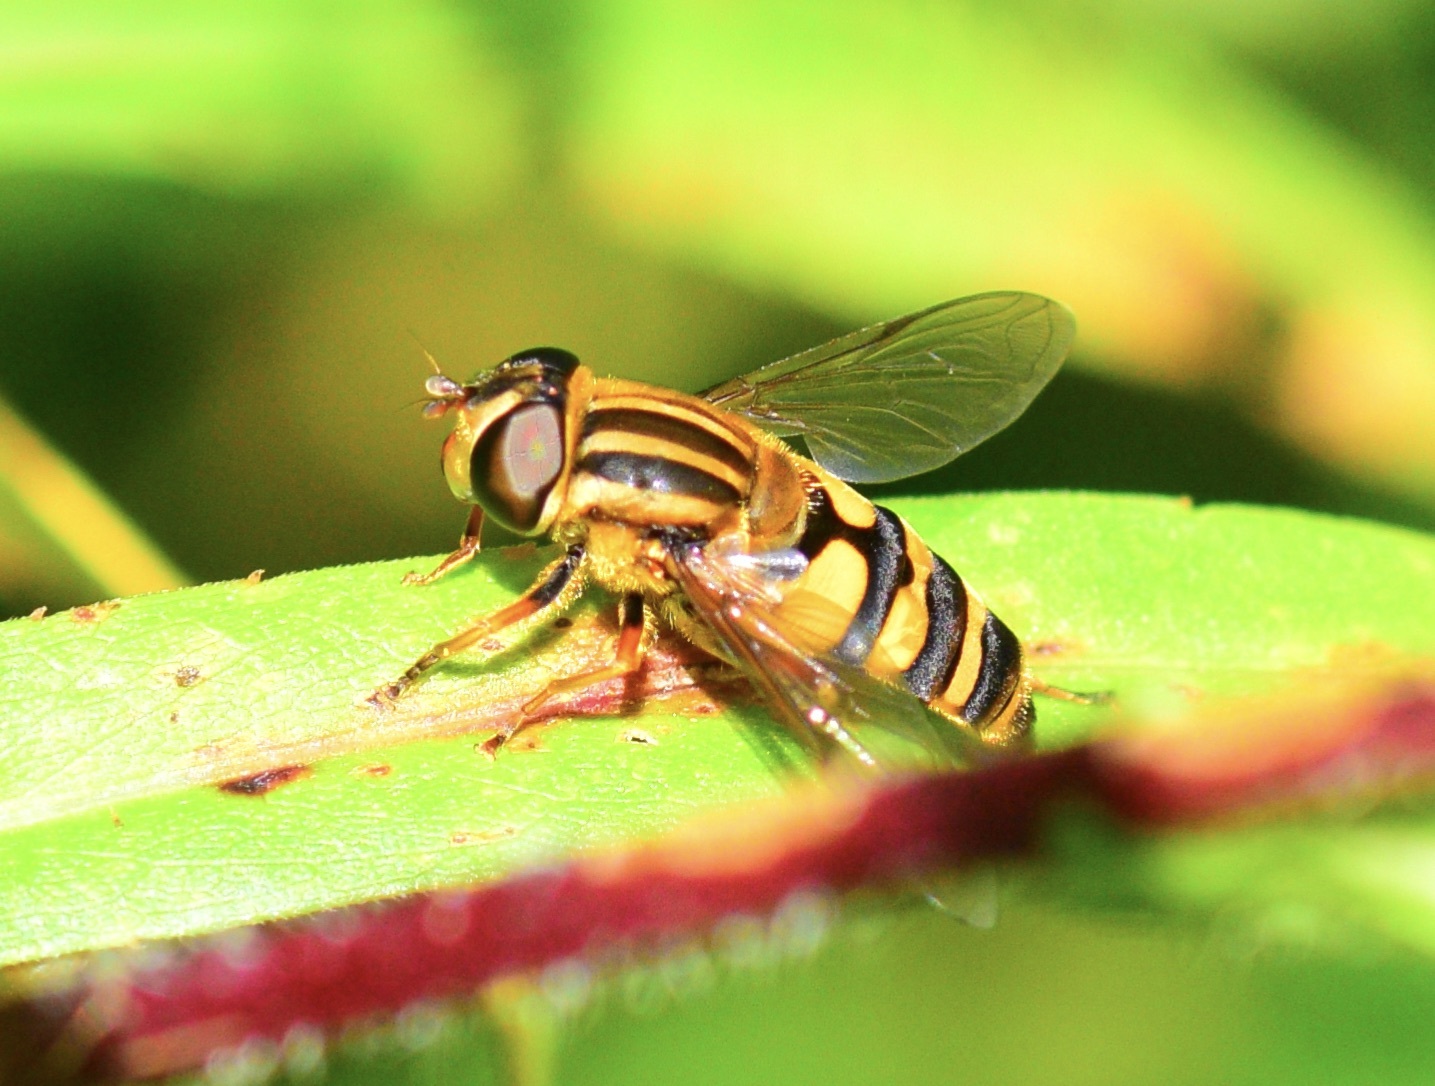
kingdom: Animalia
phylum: Arthropoda
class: Insecta
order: Diptera
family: Syrphidae
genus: Helophilus
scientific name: Helophilus fasciatus
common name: Narrow-headed marsh fly
